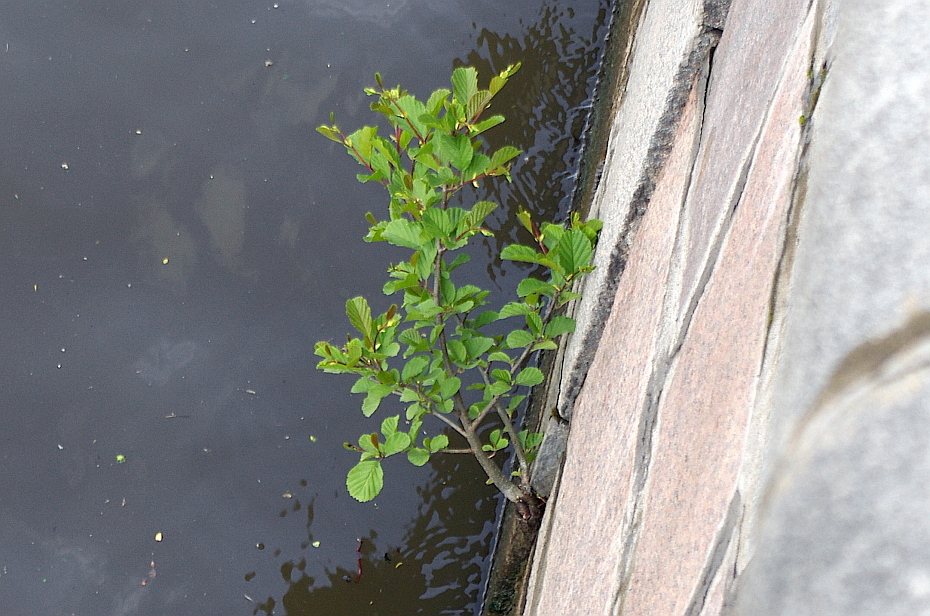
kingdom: Plantae
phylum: Tracheophyta
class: Magnoliopsida
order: Fagales
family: Betulaceae
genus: Alnus
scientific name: Alnus glutinosa
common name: Black alder
